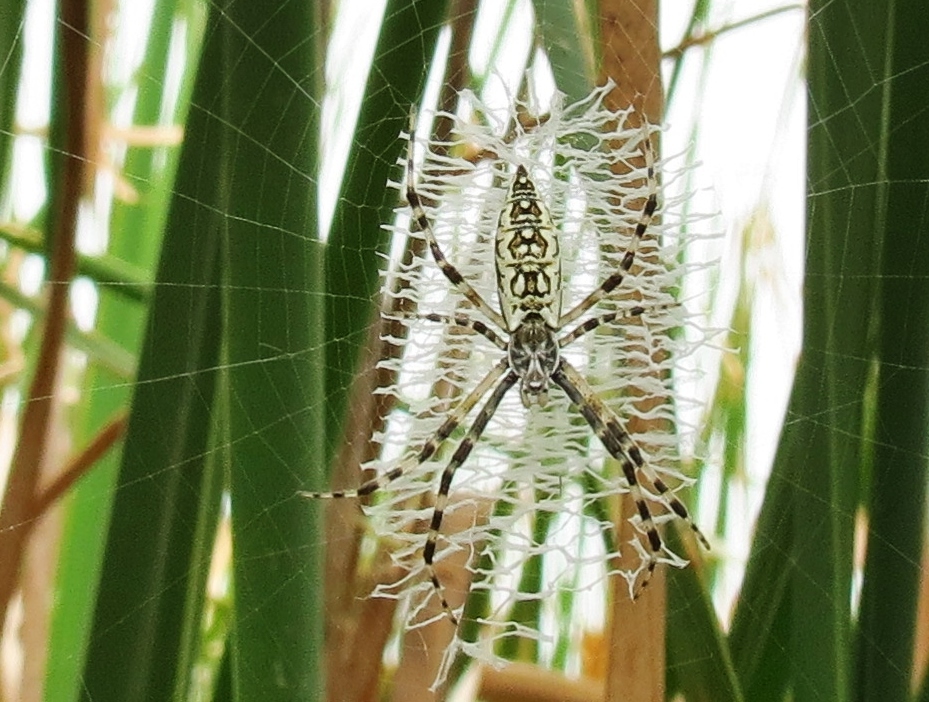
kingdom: Animalia
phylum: Arthropoda
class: Arachnida
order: Araneae
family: Araneidae
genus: Argiope
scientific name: Argiope aurantia
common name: Orb weavers
